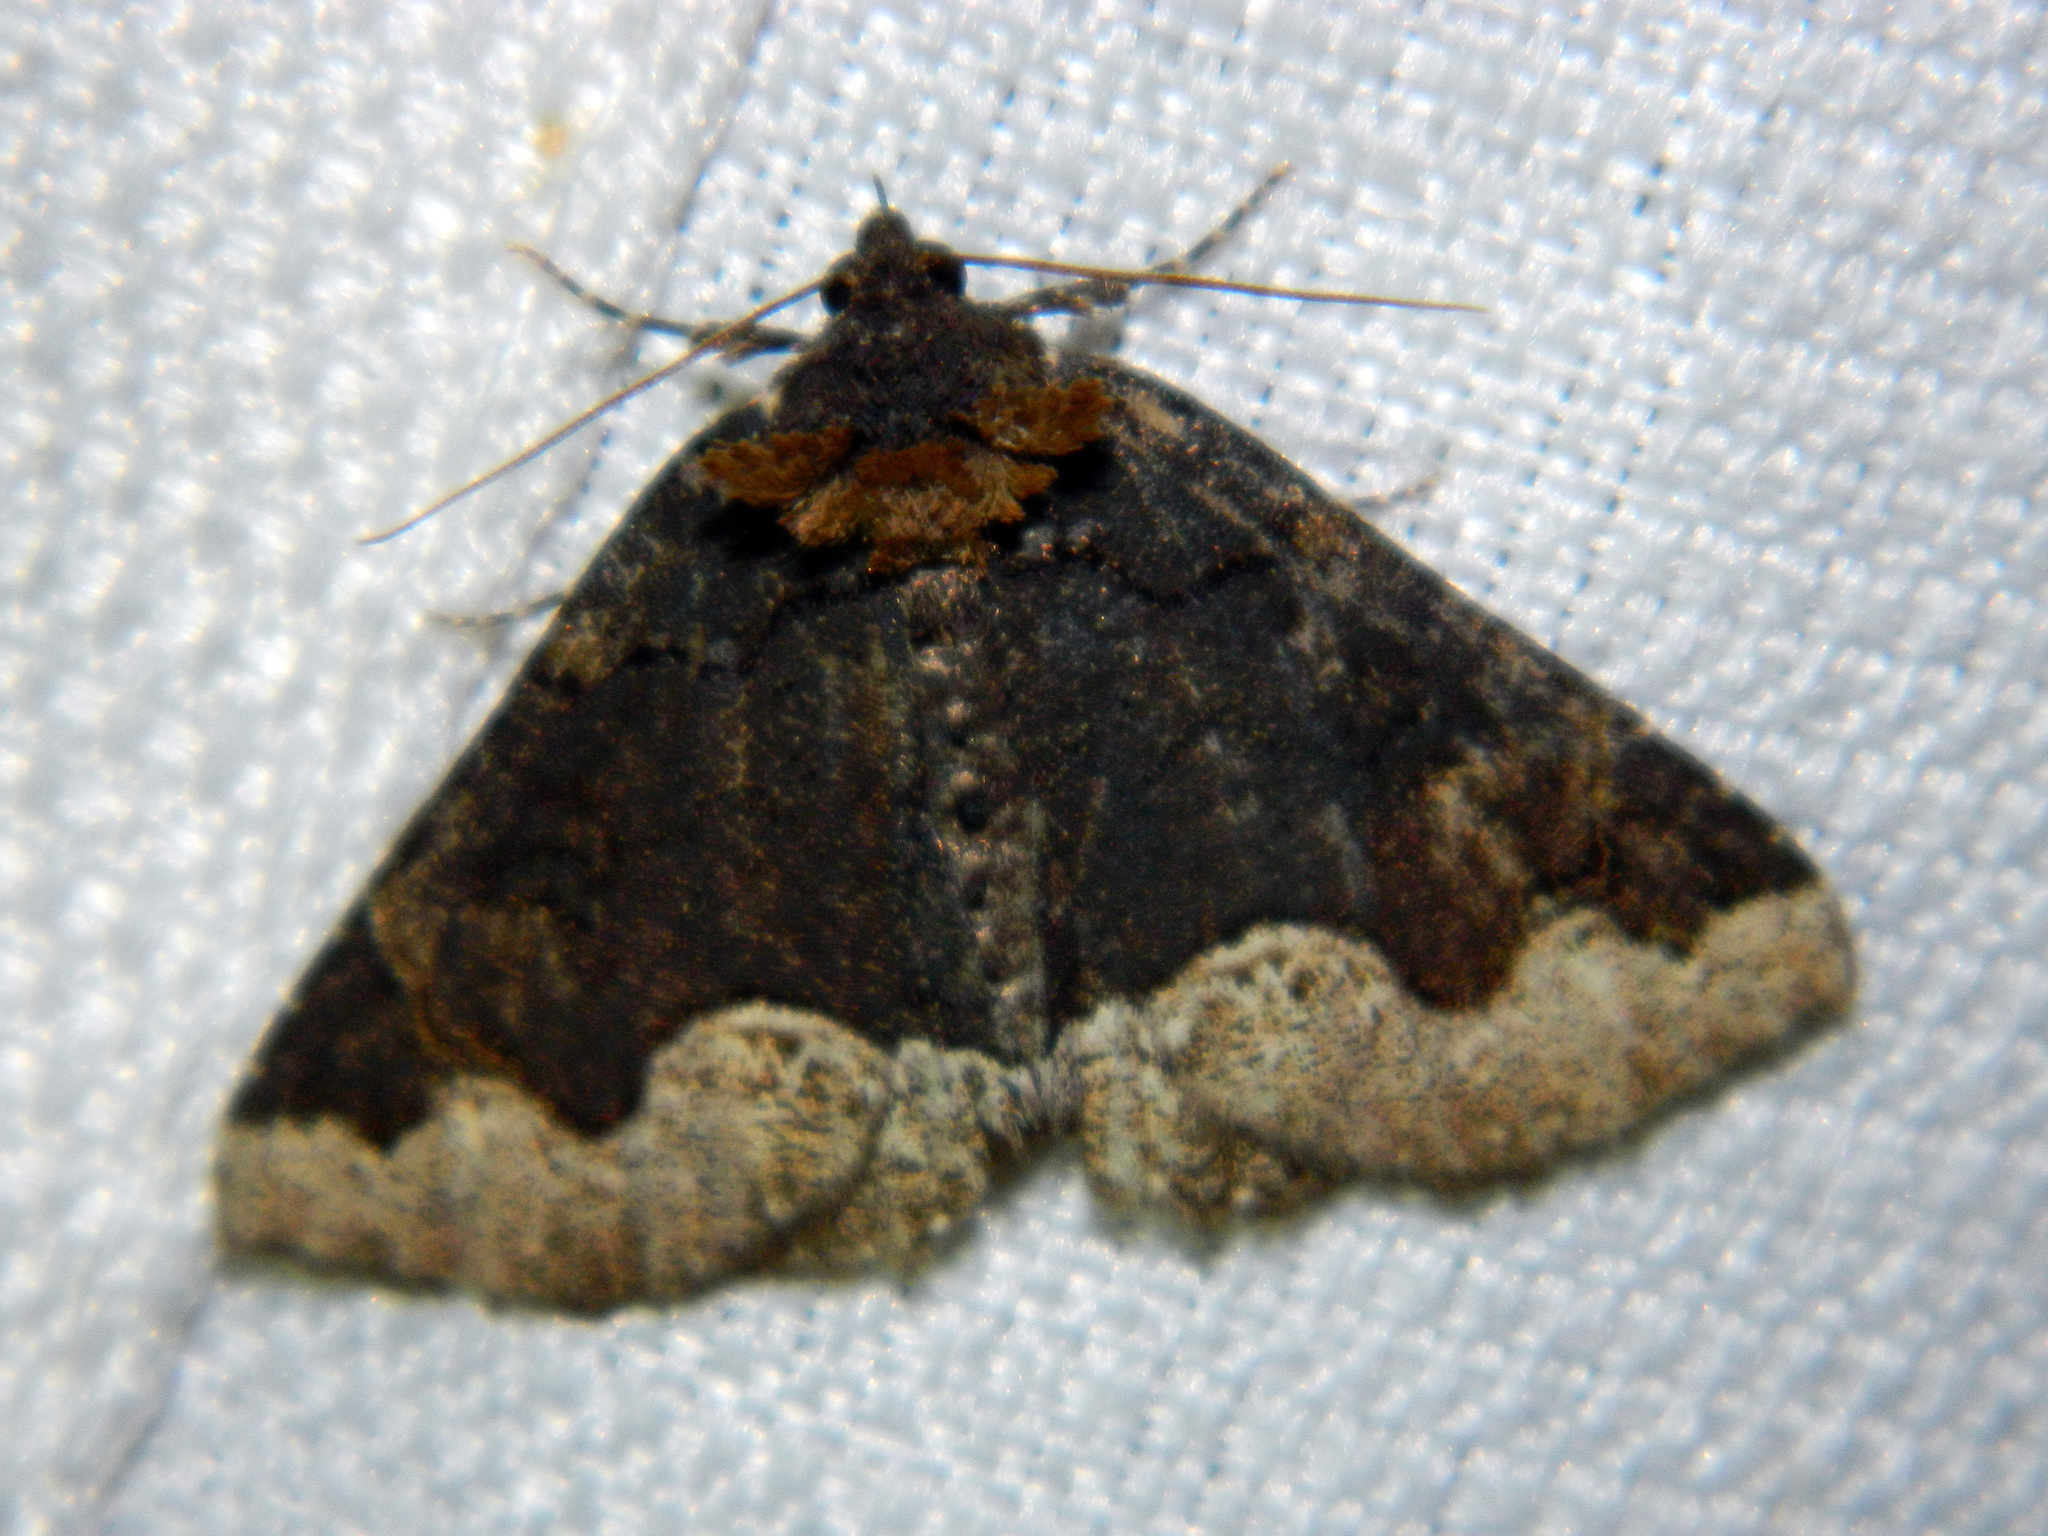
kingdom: Animalia
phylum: Arthropoda
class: Insecta
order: Lepidoptera
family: Erebidae
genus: Zale
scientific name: Zale horrida
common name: Horrid zale moth
